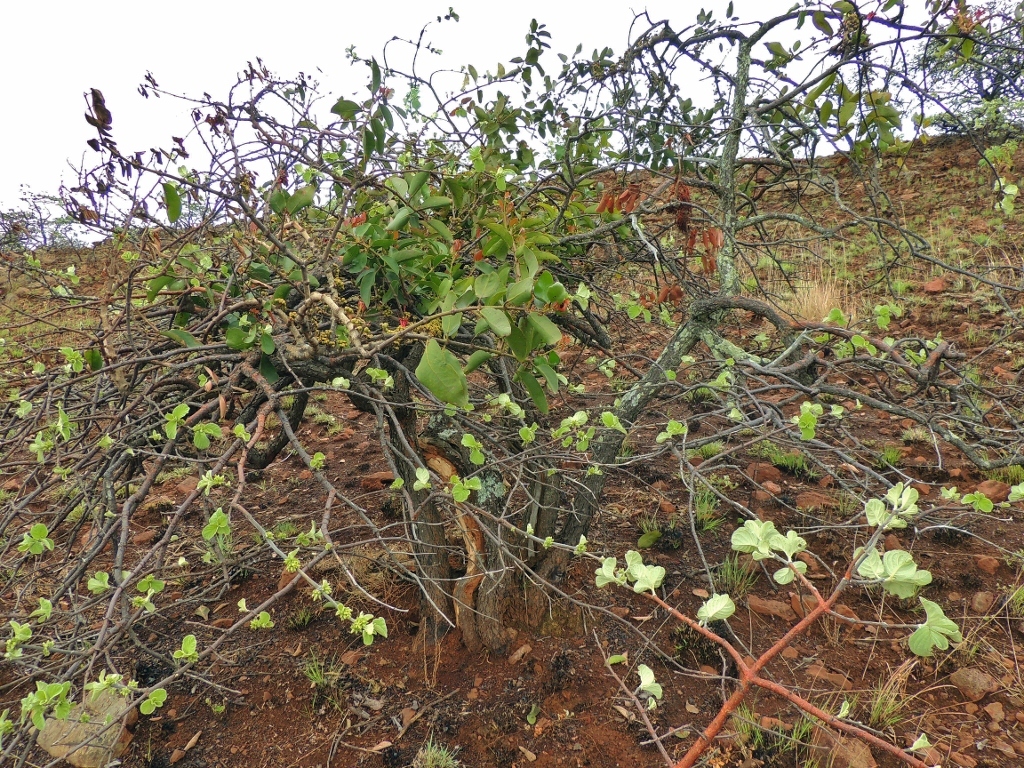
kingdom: Plantae
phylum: Tracheophyta
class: Magnoliopsida
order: Gentianales
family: Rubiaceae
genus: Vangueria
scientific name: Vangueria vestita
